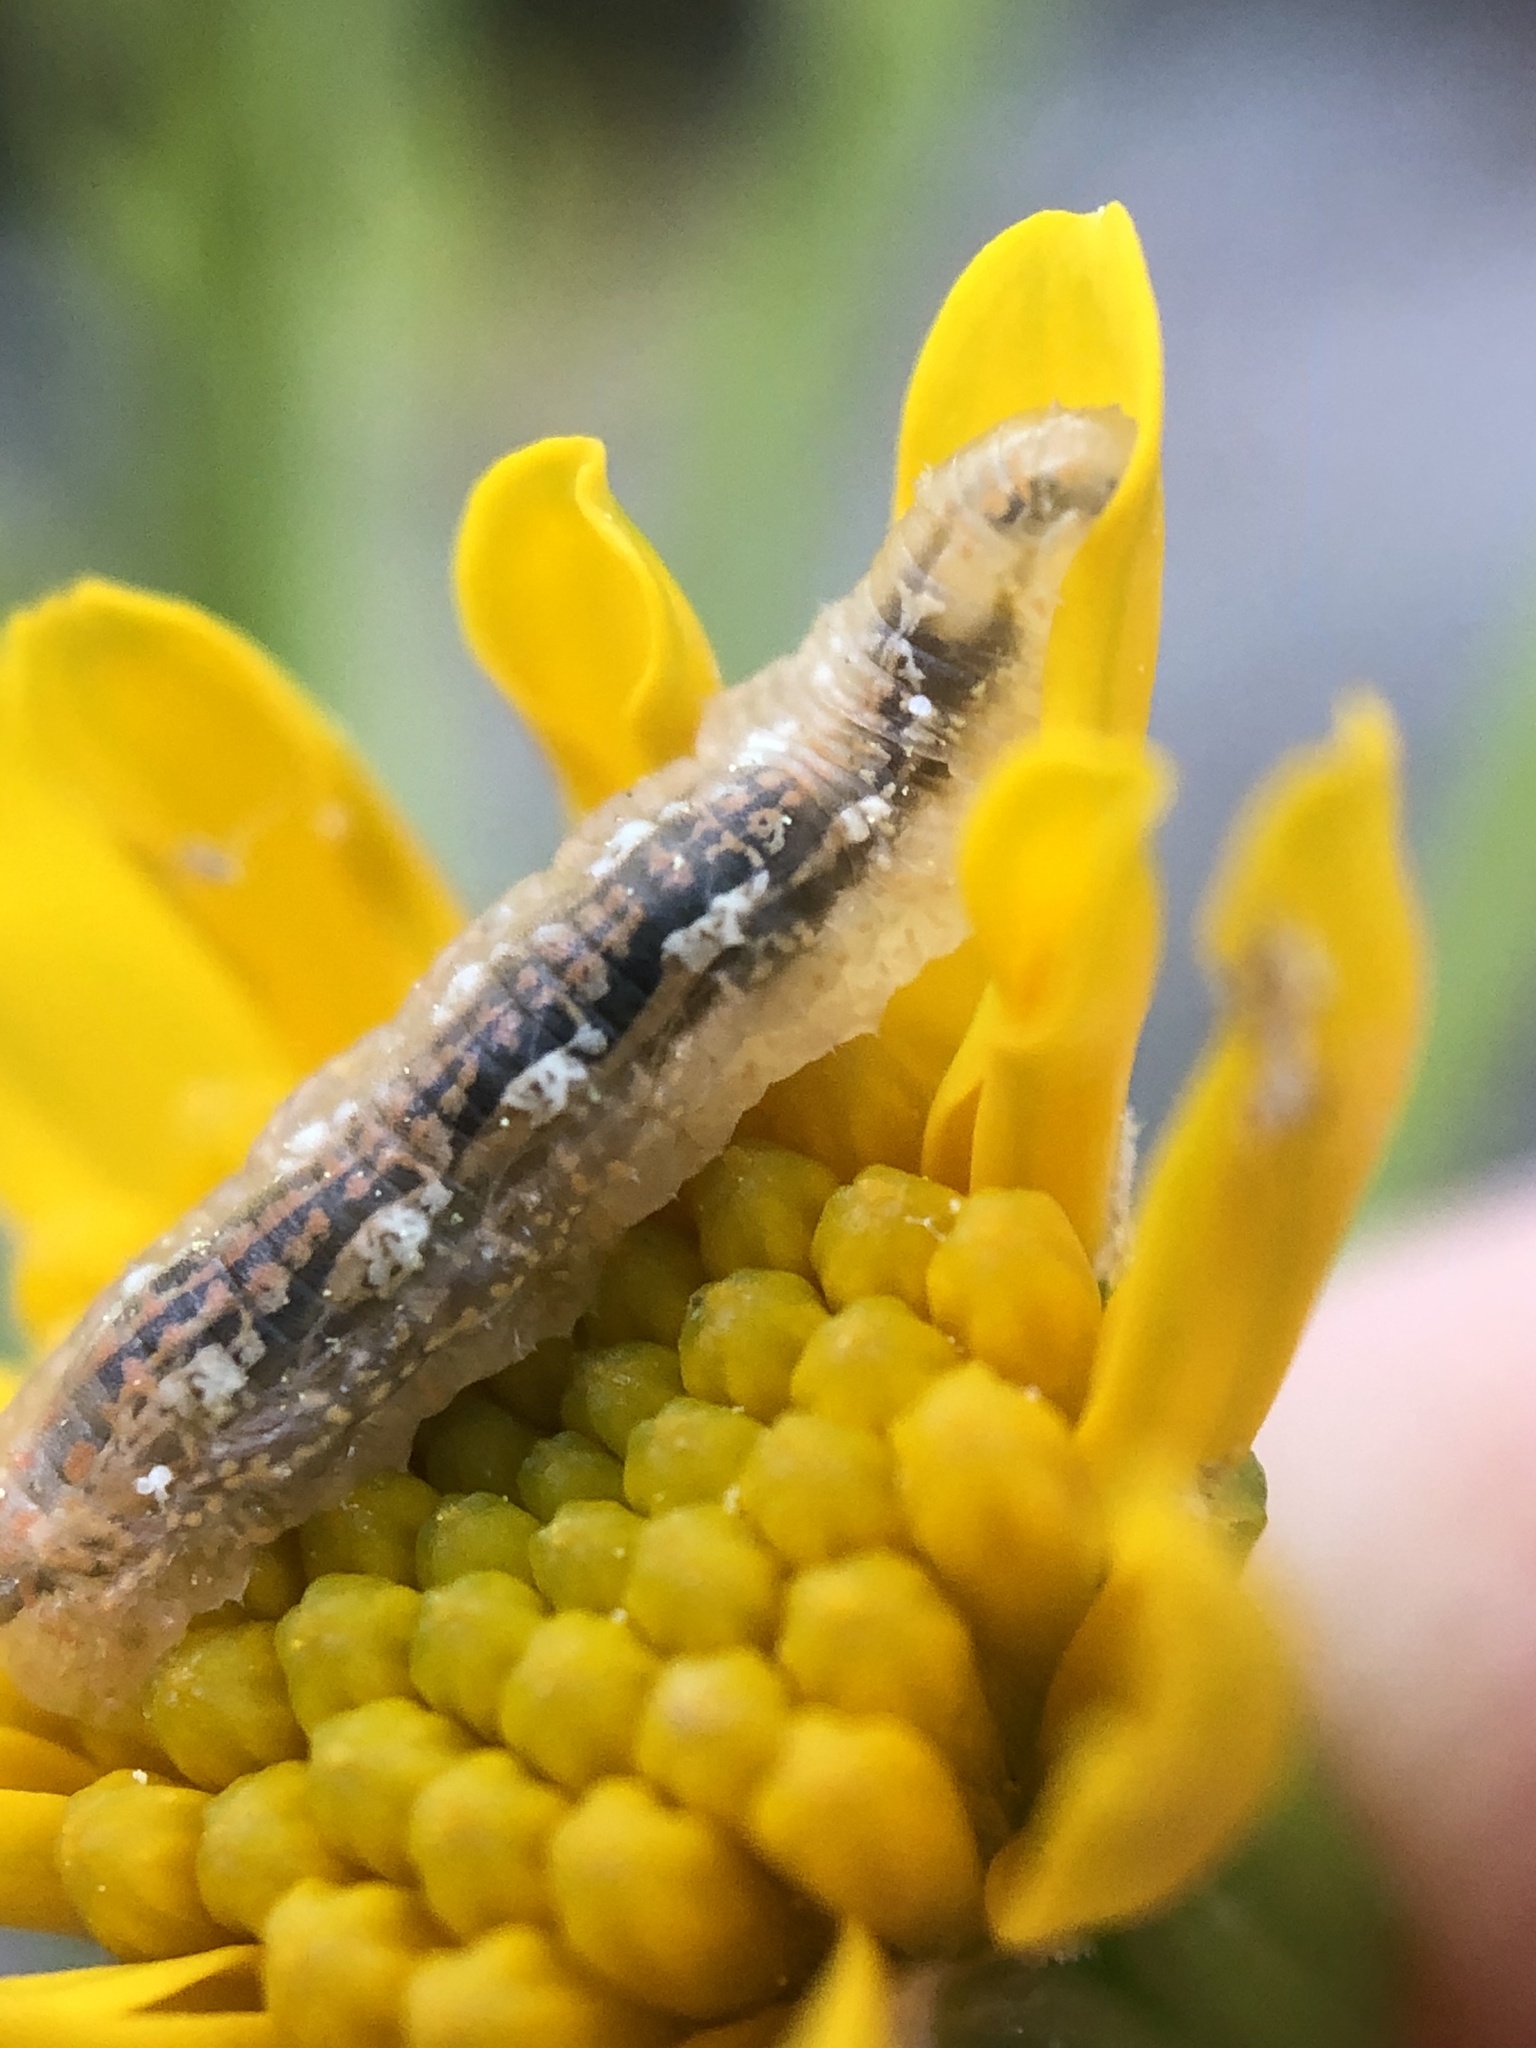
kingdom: Animalia
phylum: Arthropoda
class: Insecta
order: Diptera
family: Syrphidae
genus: Syrphus
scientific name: Syrphus
